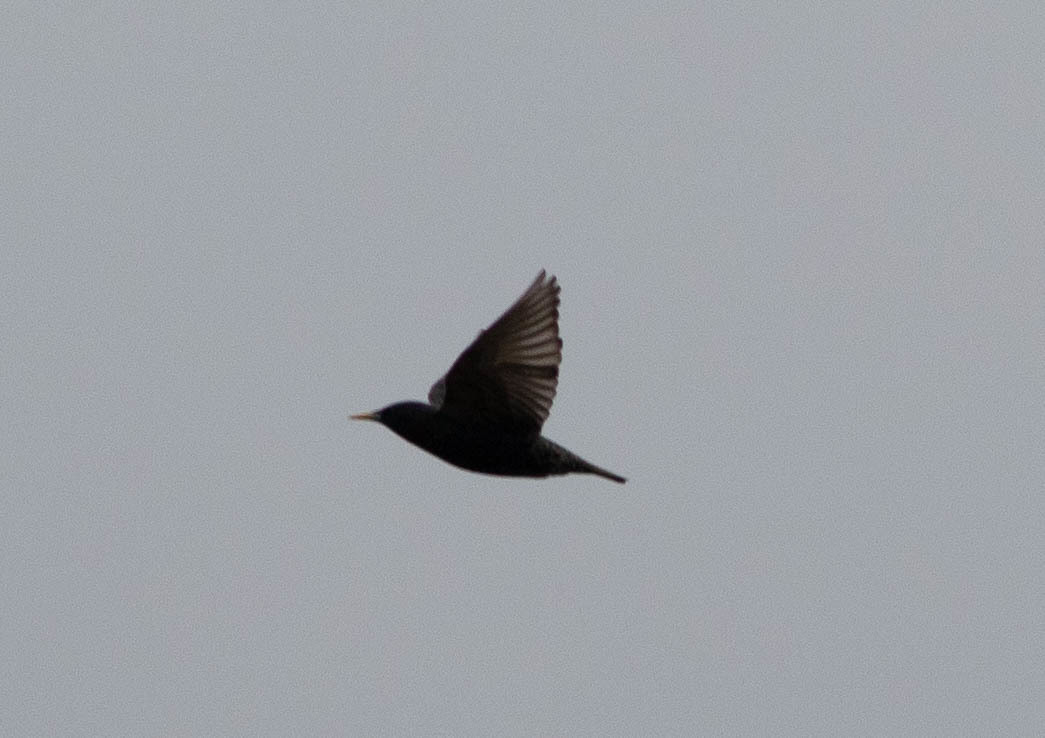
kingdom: Animalia
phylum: Chordata
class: Aves
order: Passeriformes
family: Sturnidae
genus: Sturnus
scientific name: Sturnus vulgaris
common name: Common starling
